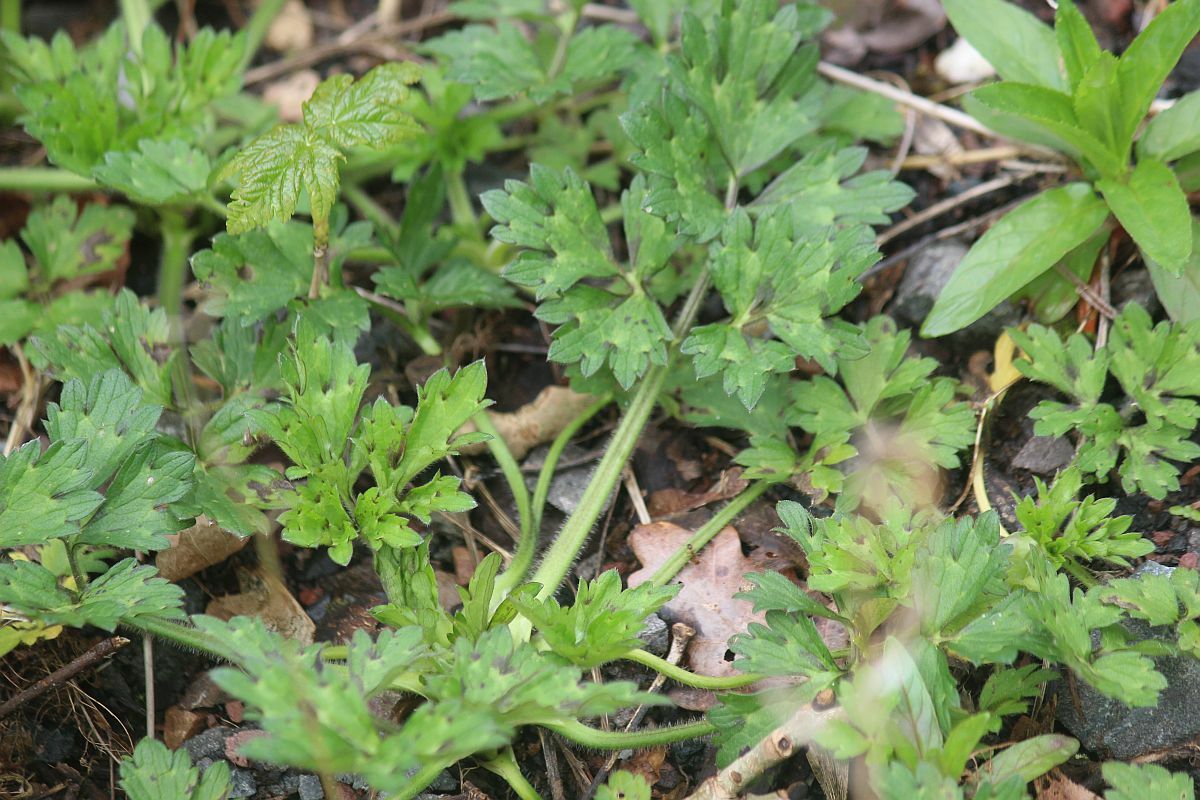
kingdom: Plantae
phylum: Tracheophyta
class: Magnoliopsida
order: Ranunculales
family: Ranunculaceae
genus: Ranunculus
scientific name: Ranunculus repens
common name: Creeping buttercup
